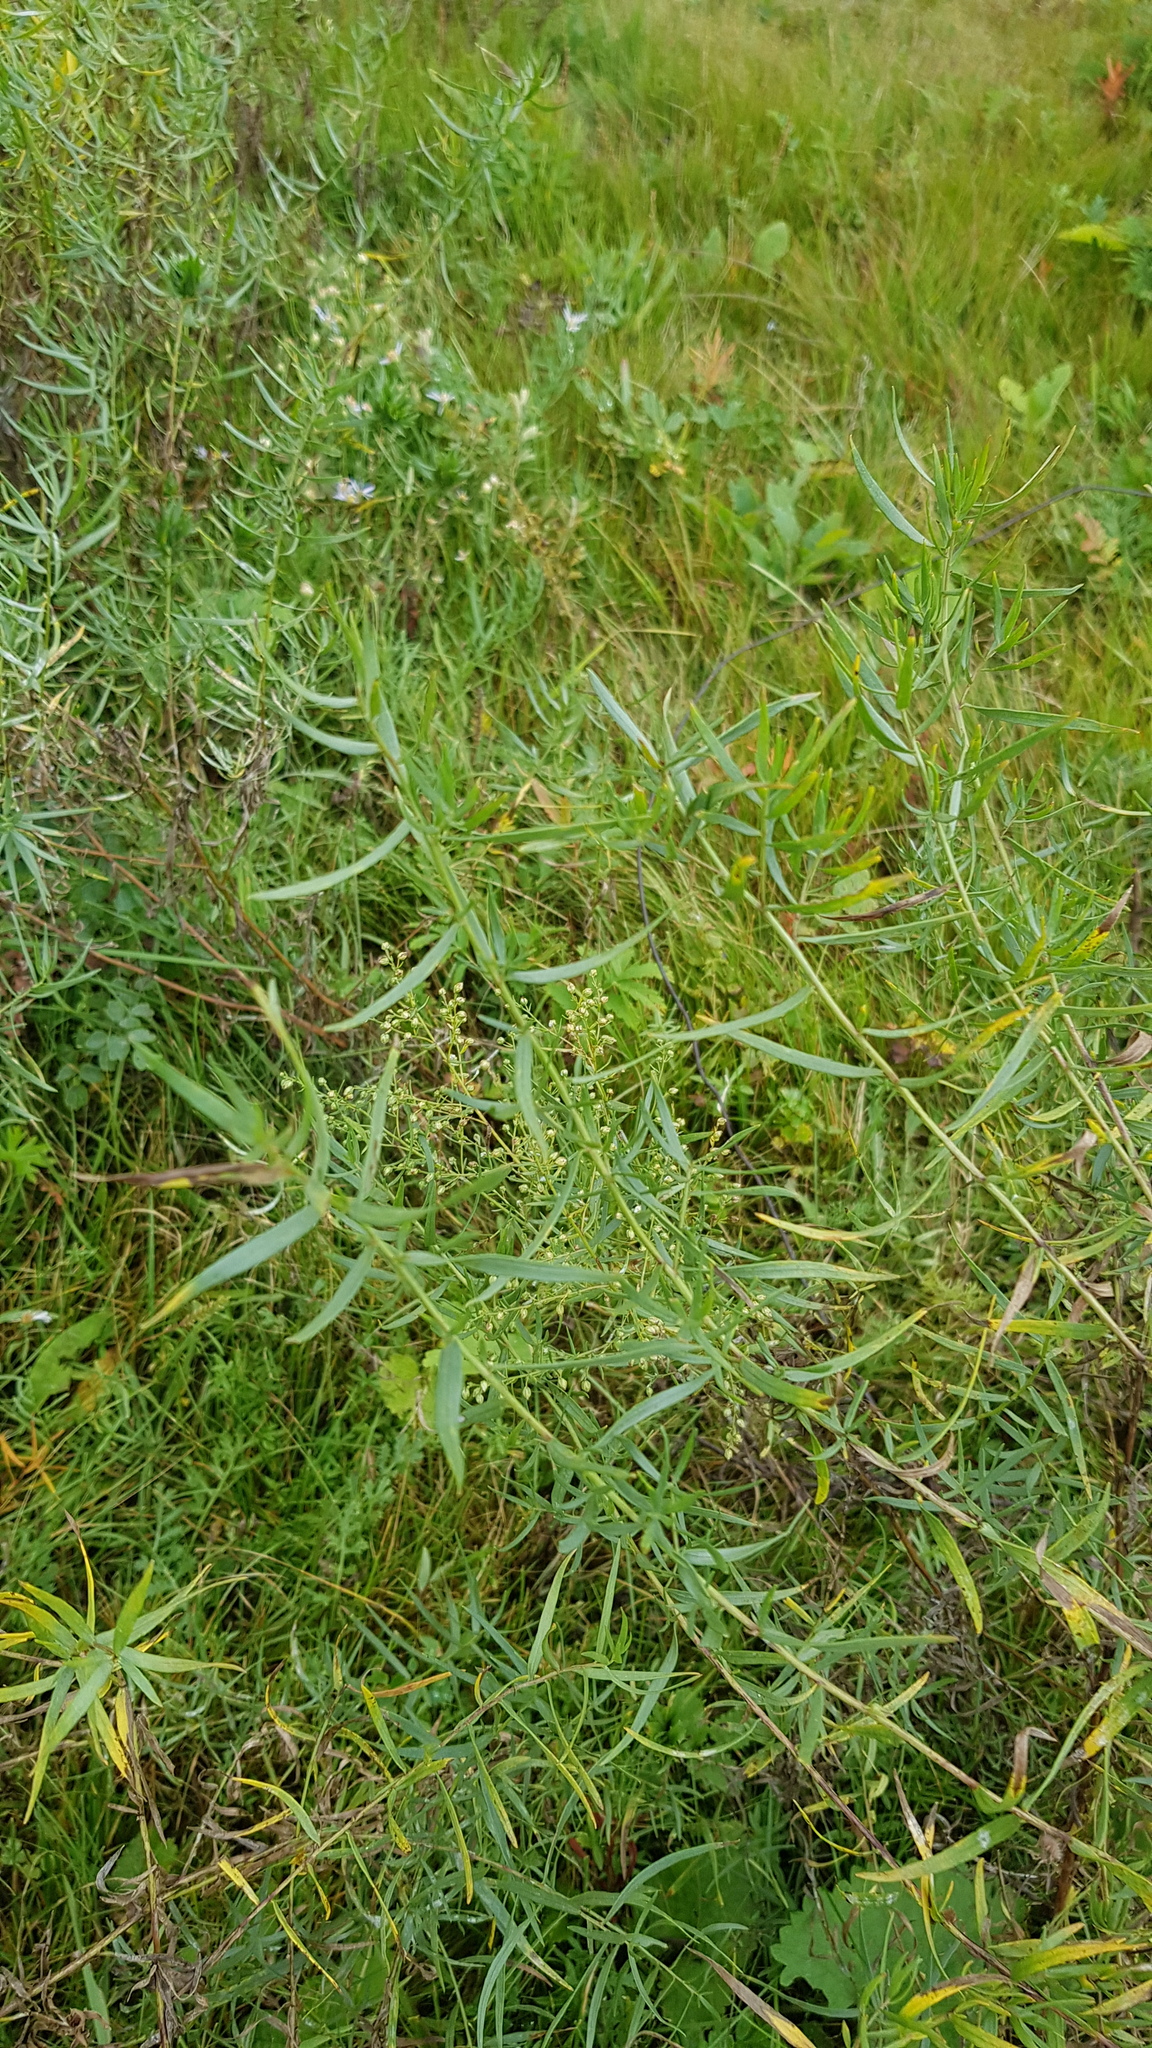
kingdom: Plantae
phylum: Tracheophyta
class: Magnoliopsida
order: Asterales
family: Asteraceae
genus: Artemisia
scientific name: Artemisia dracunculus
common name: Tarragon
